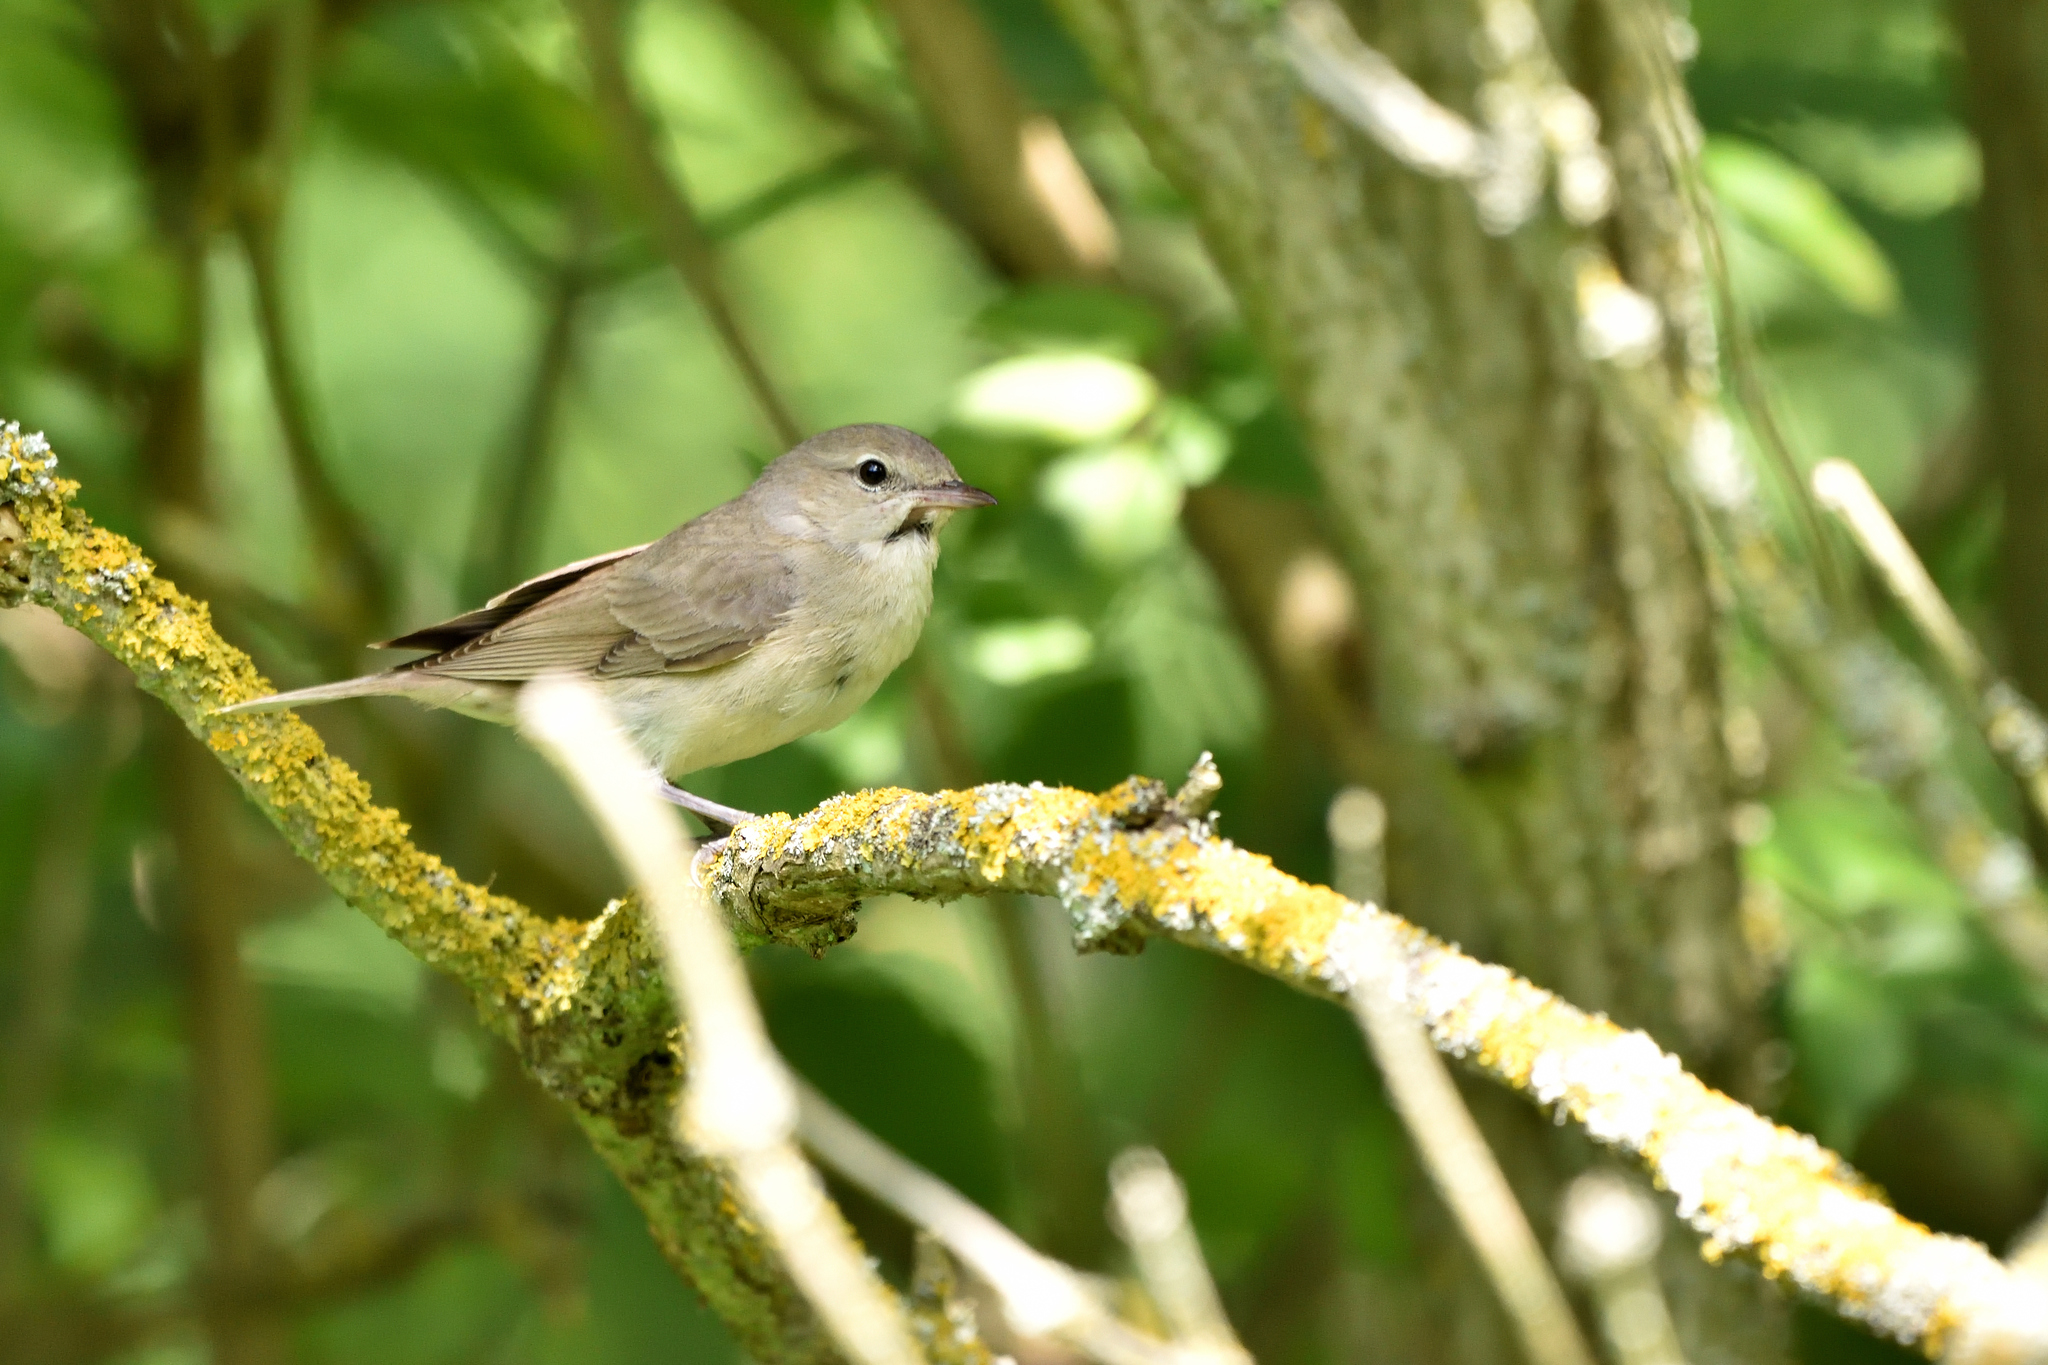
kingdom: Animalia
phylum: Chordata
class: Aves
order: Passeriformes
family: Sylviidae
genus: Sylvia
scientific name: Sylvia borin
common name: Garden warbler
